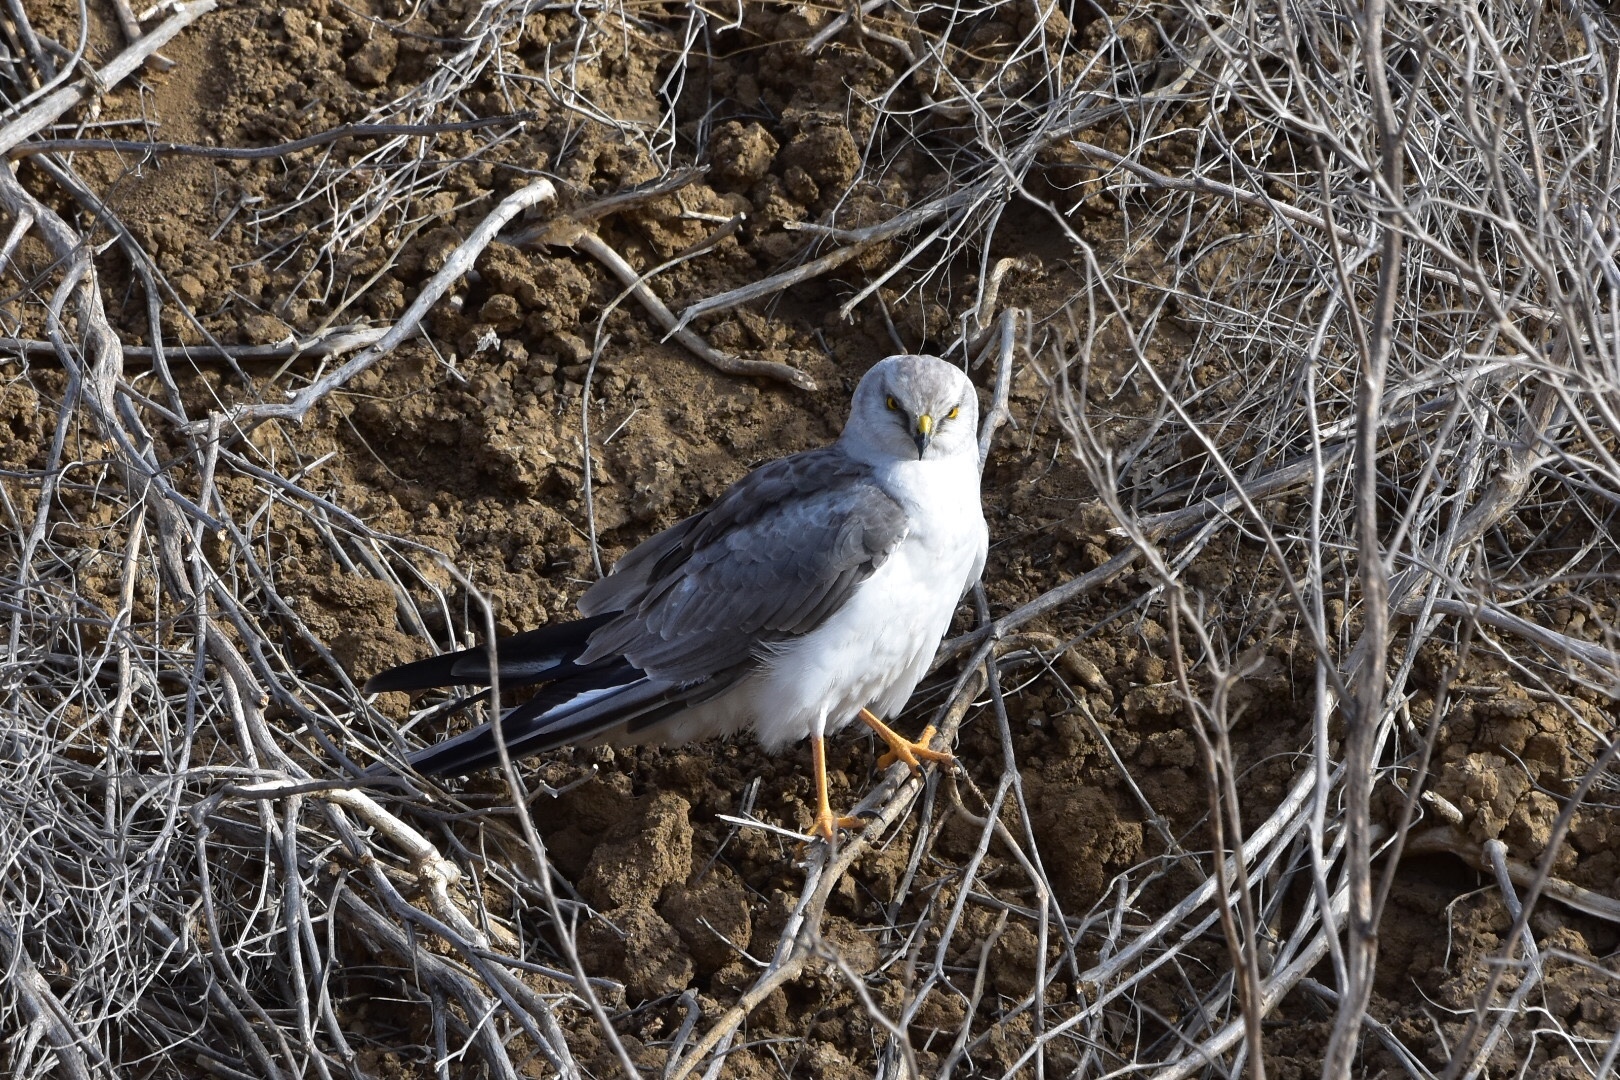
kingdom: Animalia
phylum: Chordata
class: Aves
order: Accipitriformes
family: Accipitridae
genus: Circus
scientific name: Circus macrourus
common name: Pallid harrier
